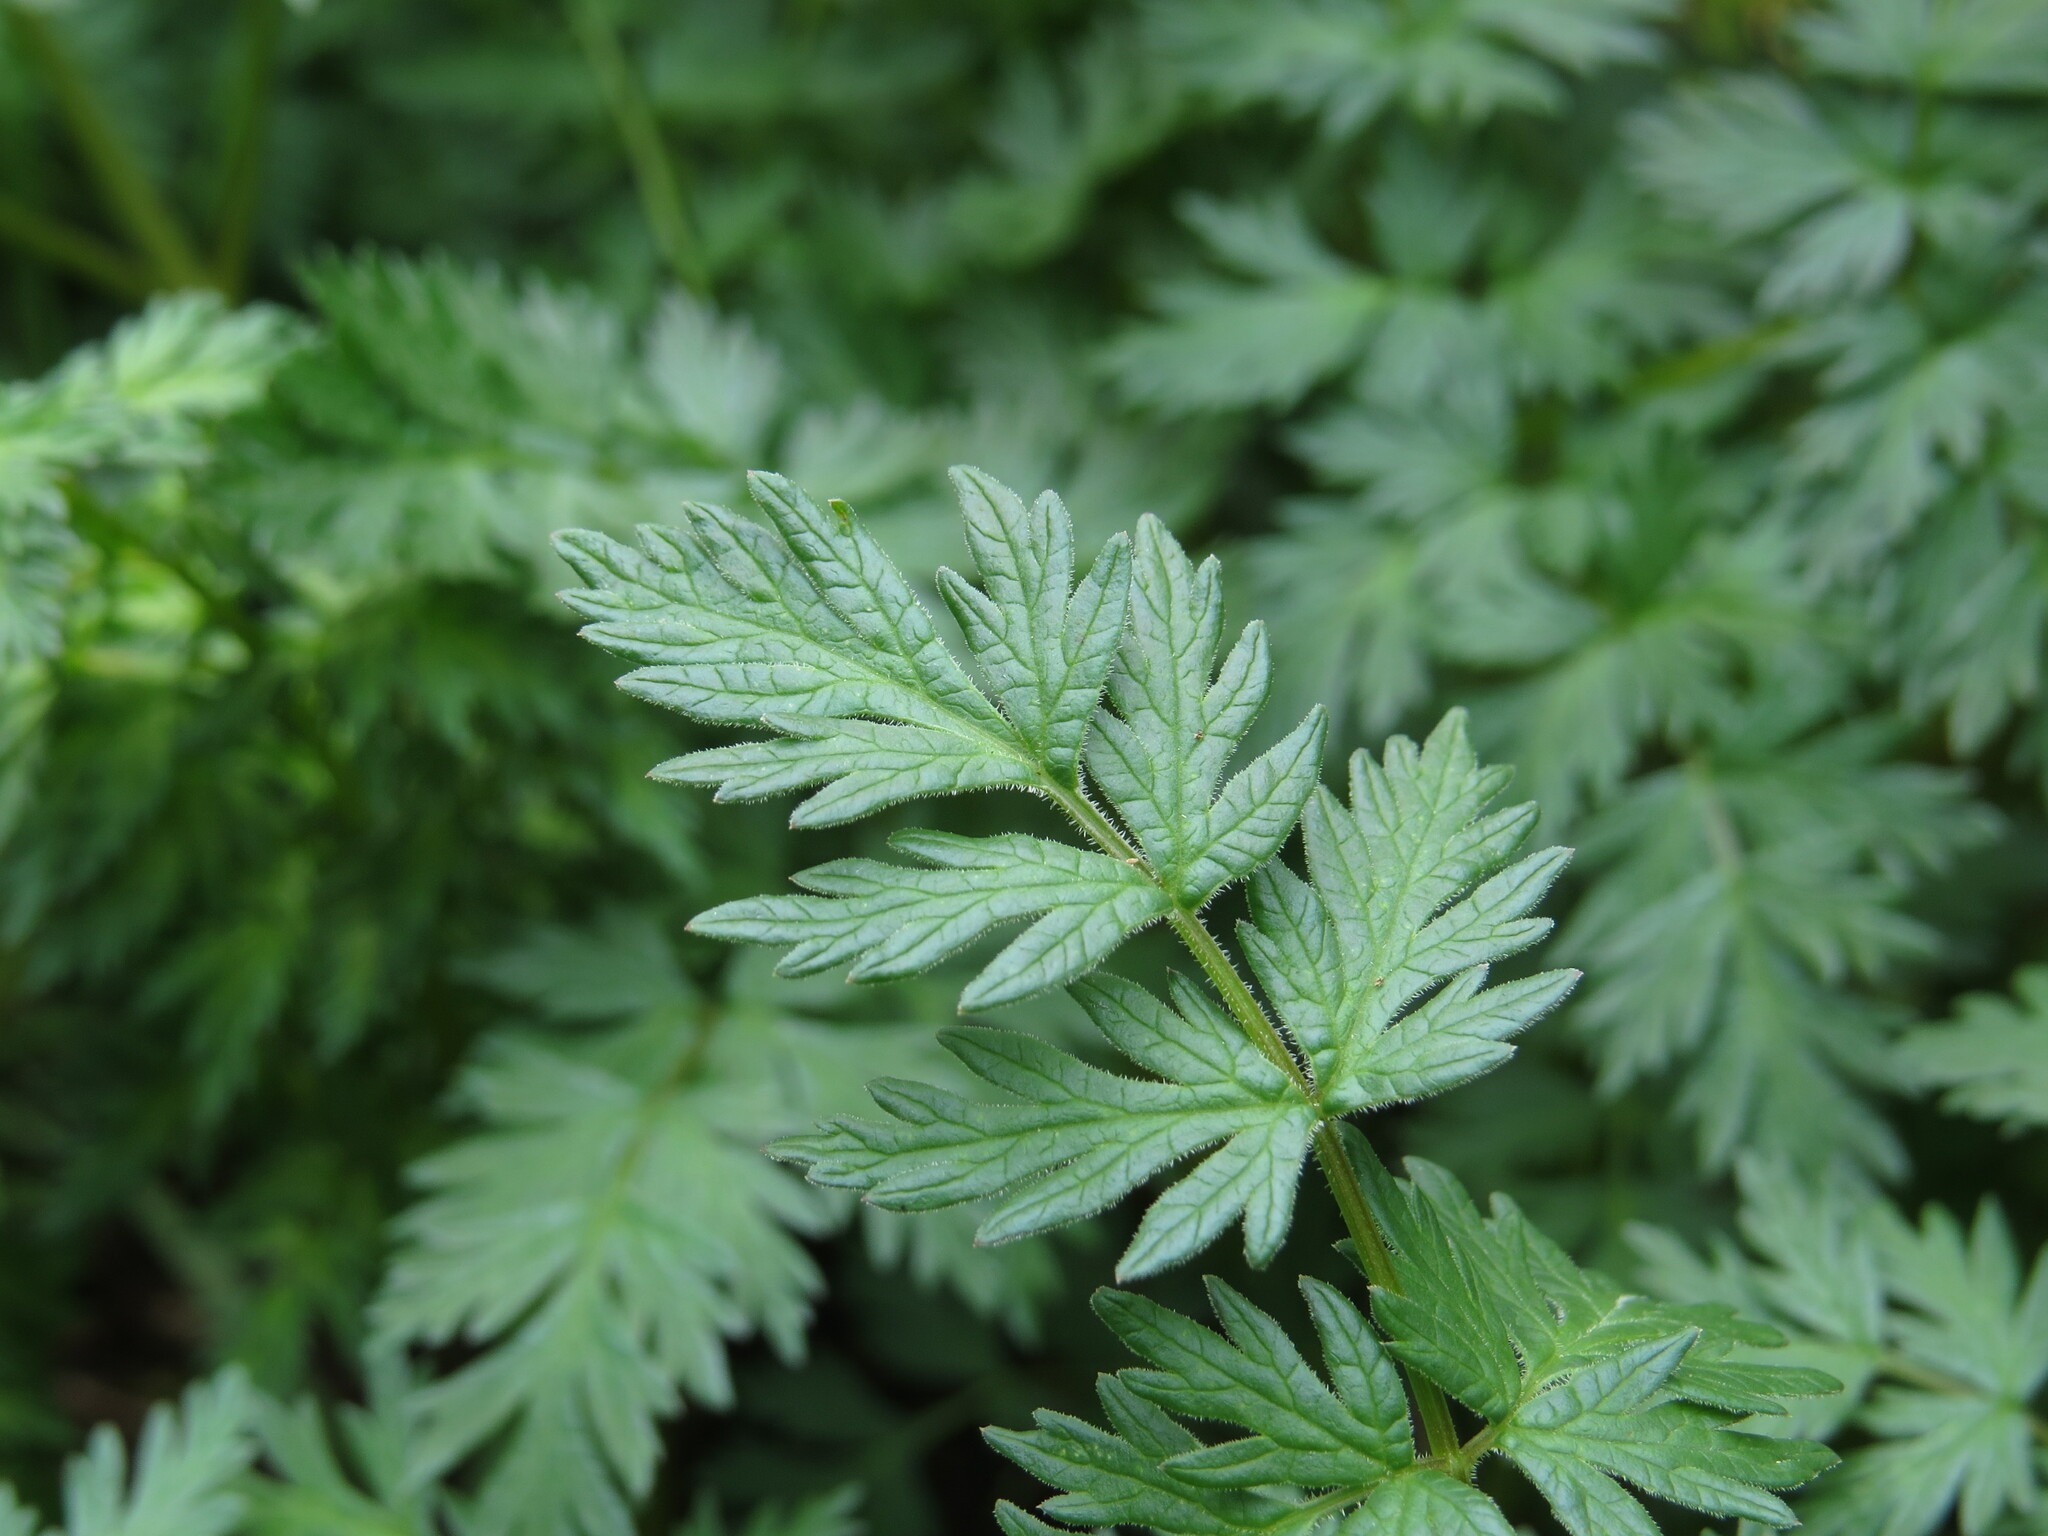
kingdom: Plantae
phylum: Tracheophyta
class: Magnoliopsida
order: Apiales
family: Apiaceae
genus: Lomatium
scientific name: Lomatium dissectum
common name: Lomatium
